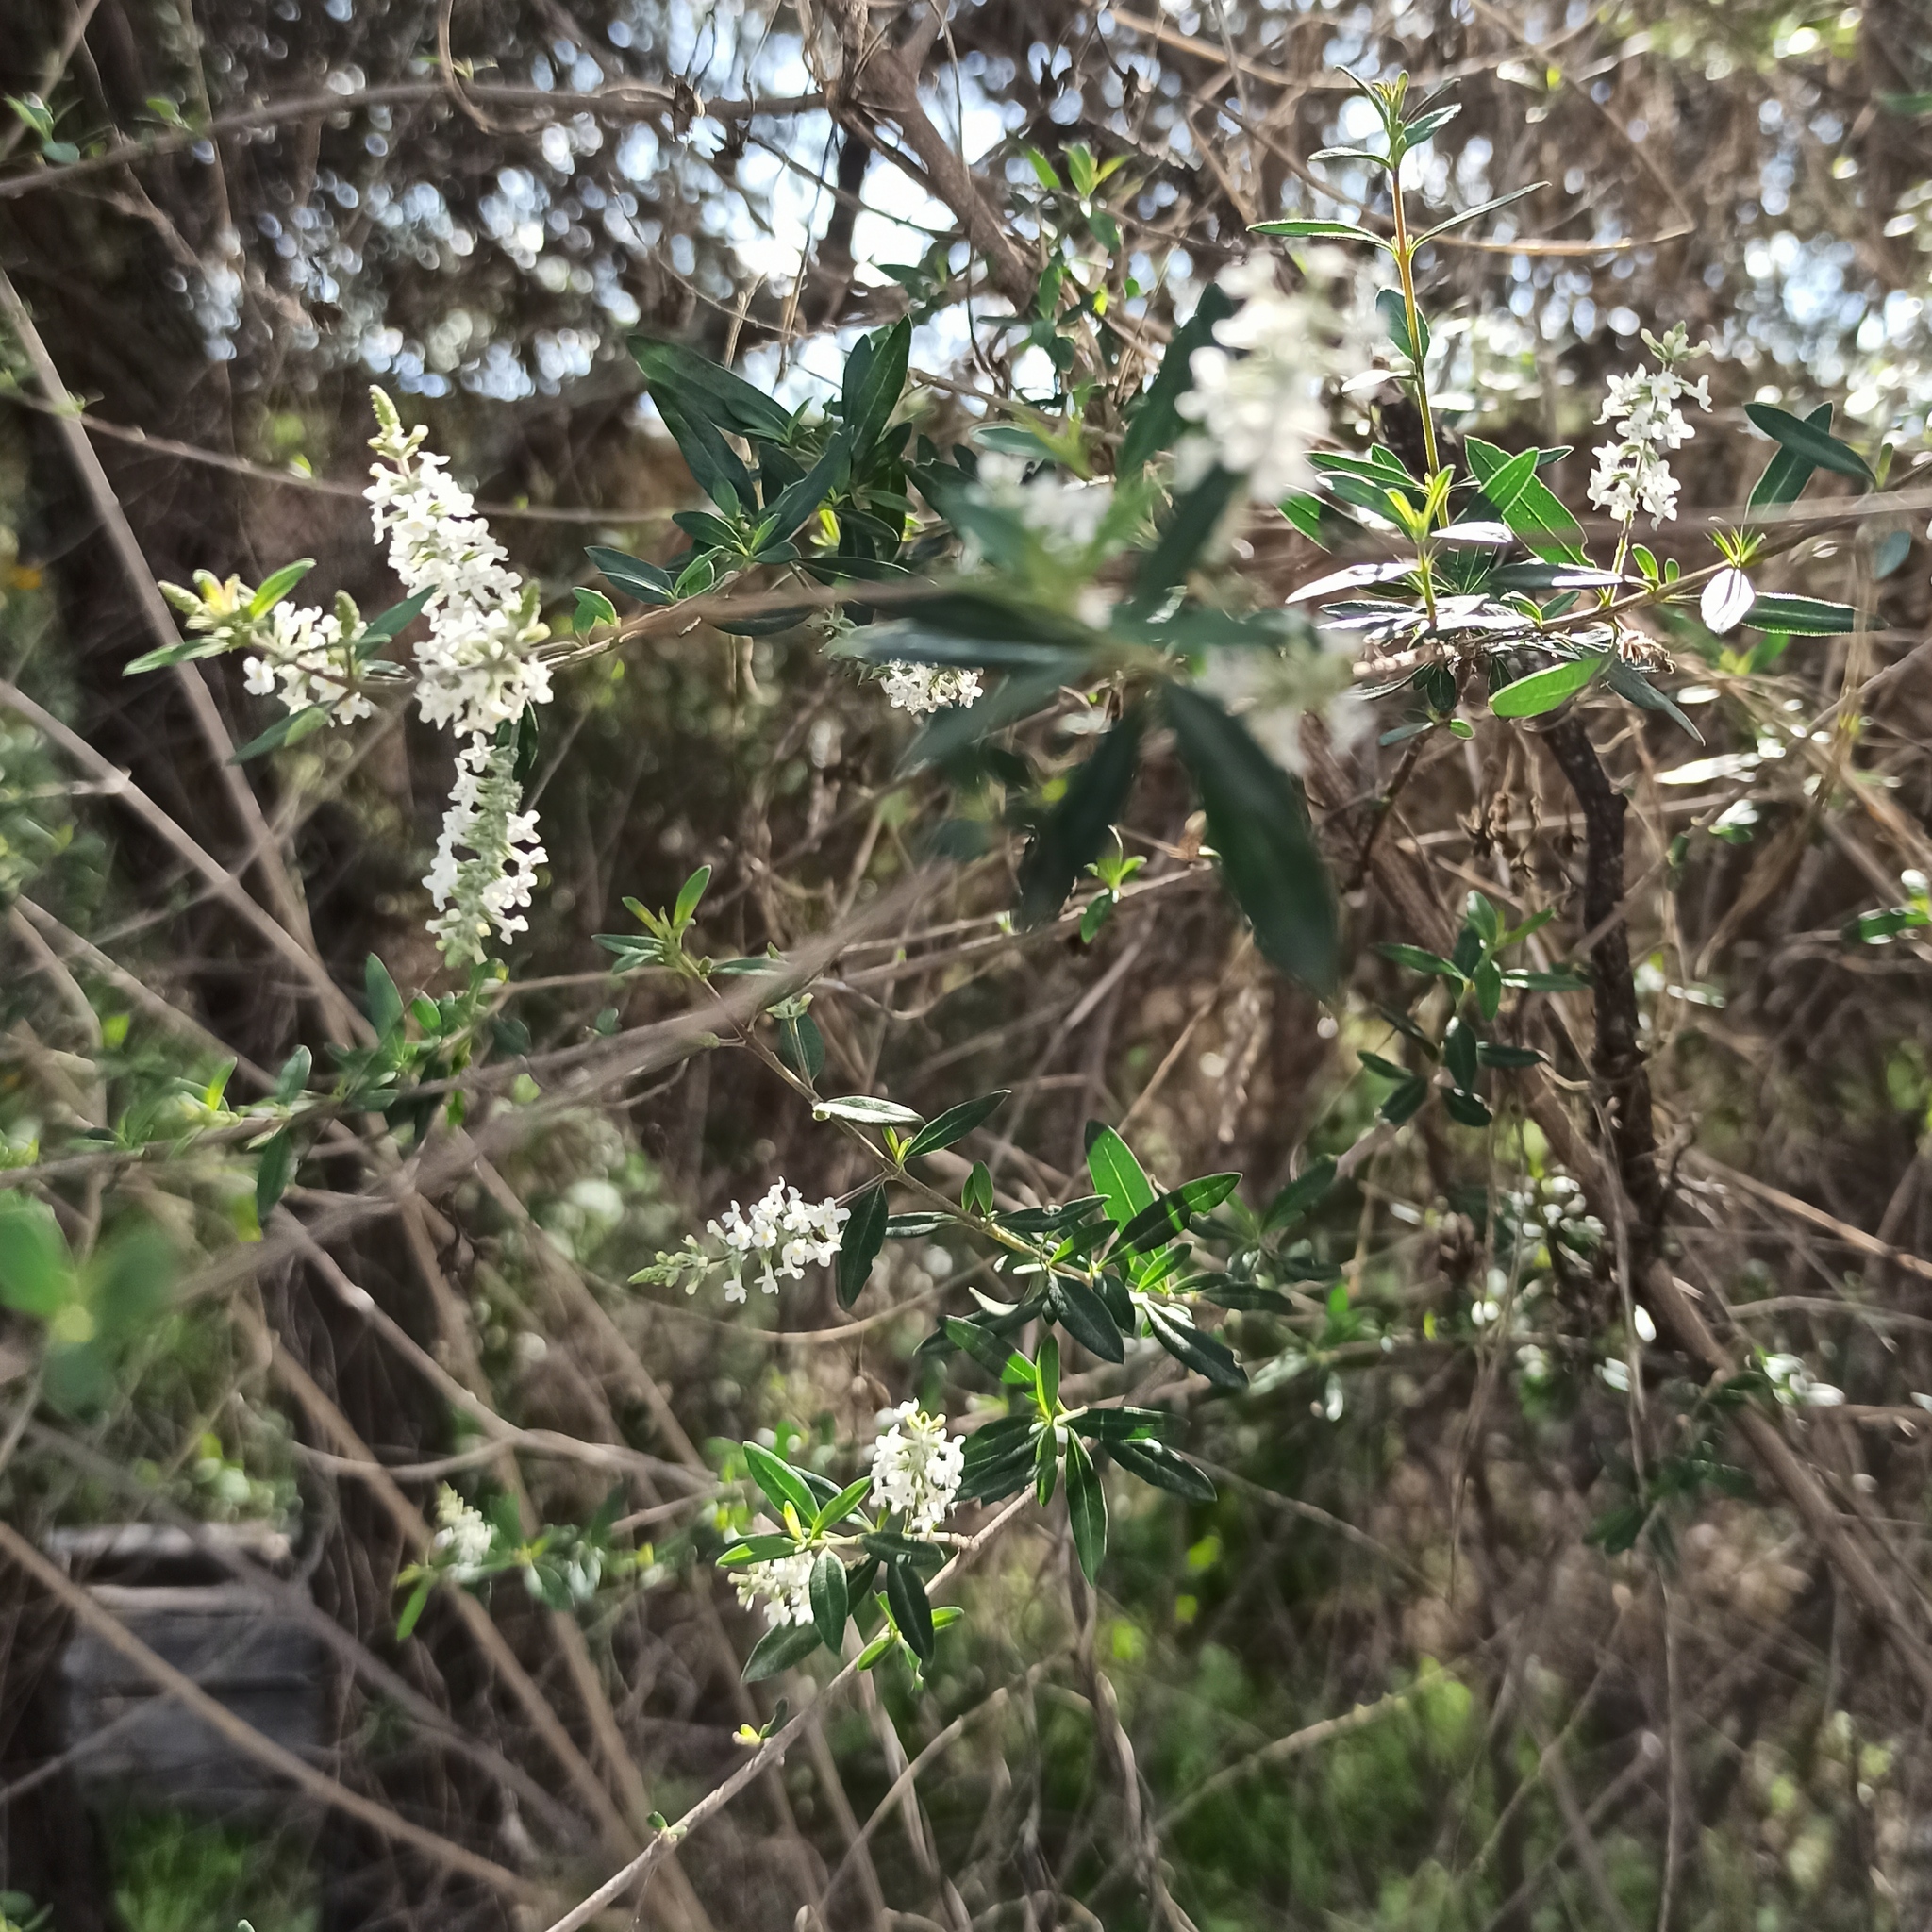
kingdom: Plantae
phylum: Tracheophyta
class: Magnoliopsida
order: Lamiales
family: Verbenaceae
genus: Aloysia
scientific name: Aloysia gratissima
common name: Common bee-brush
